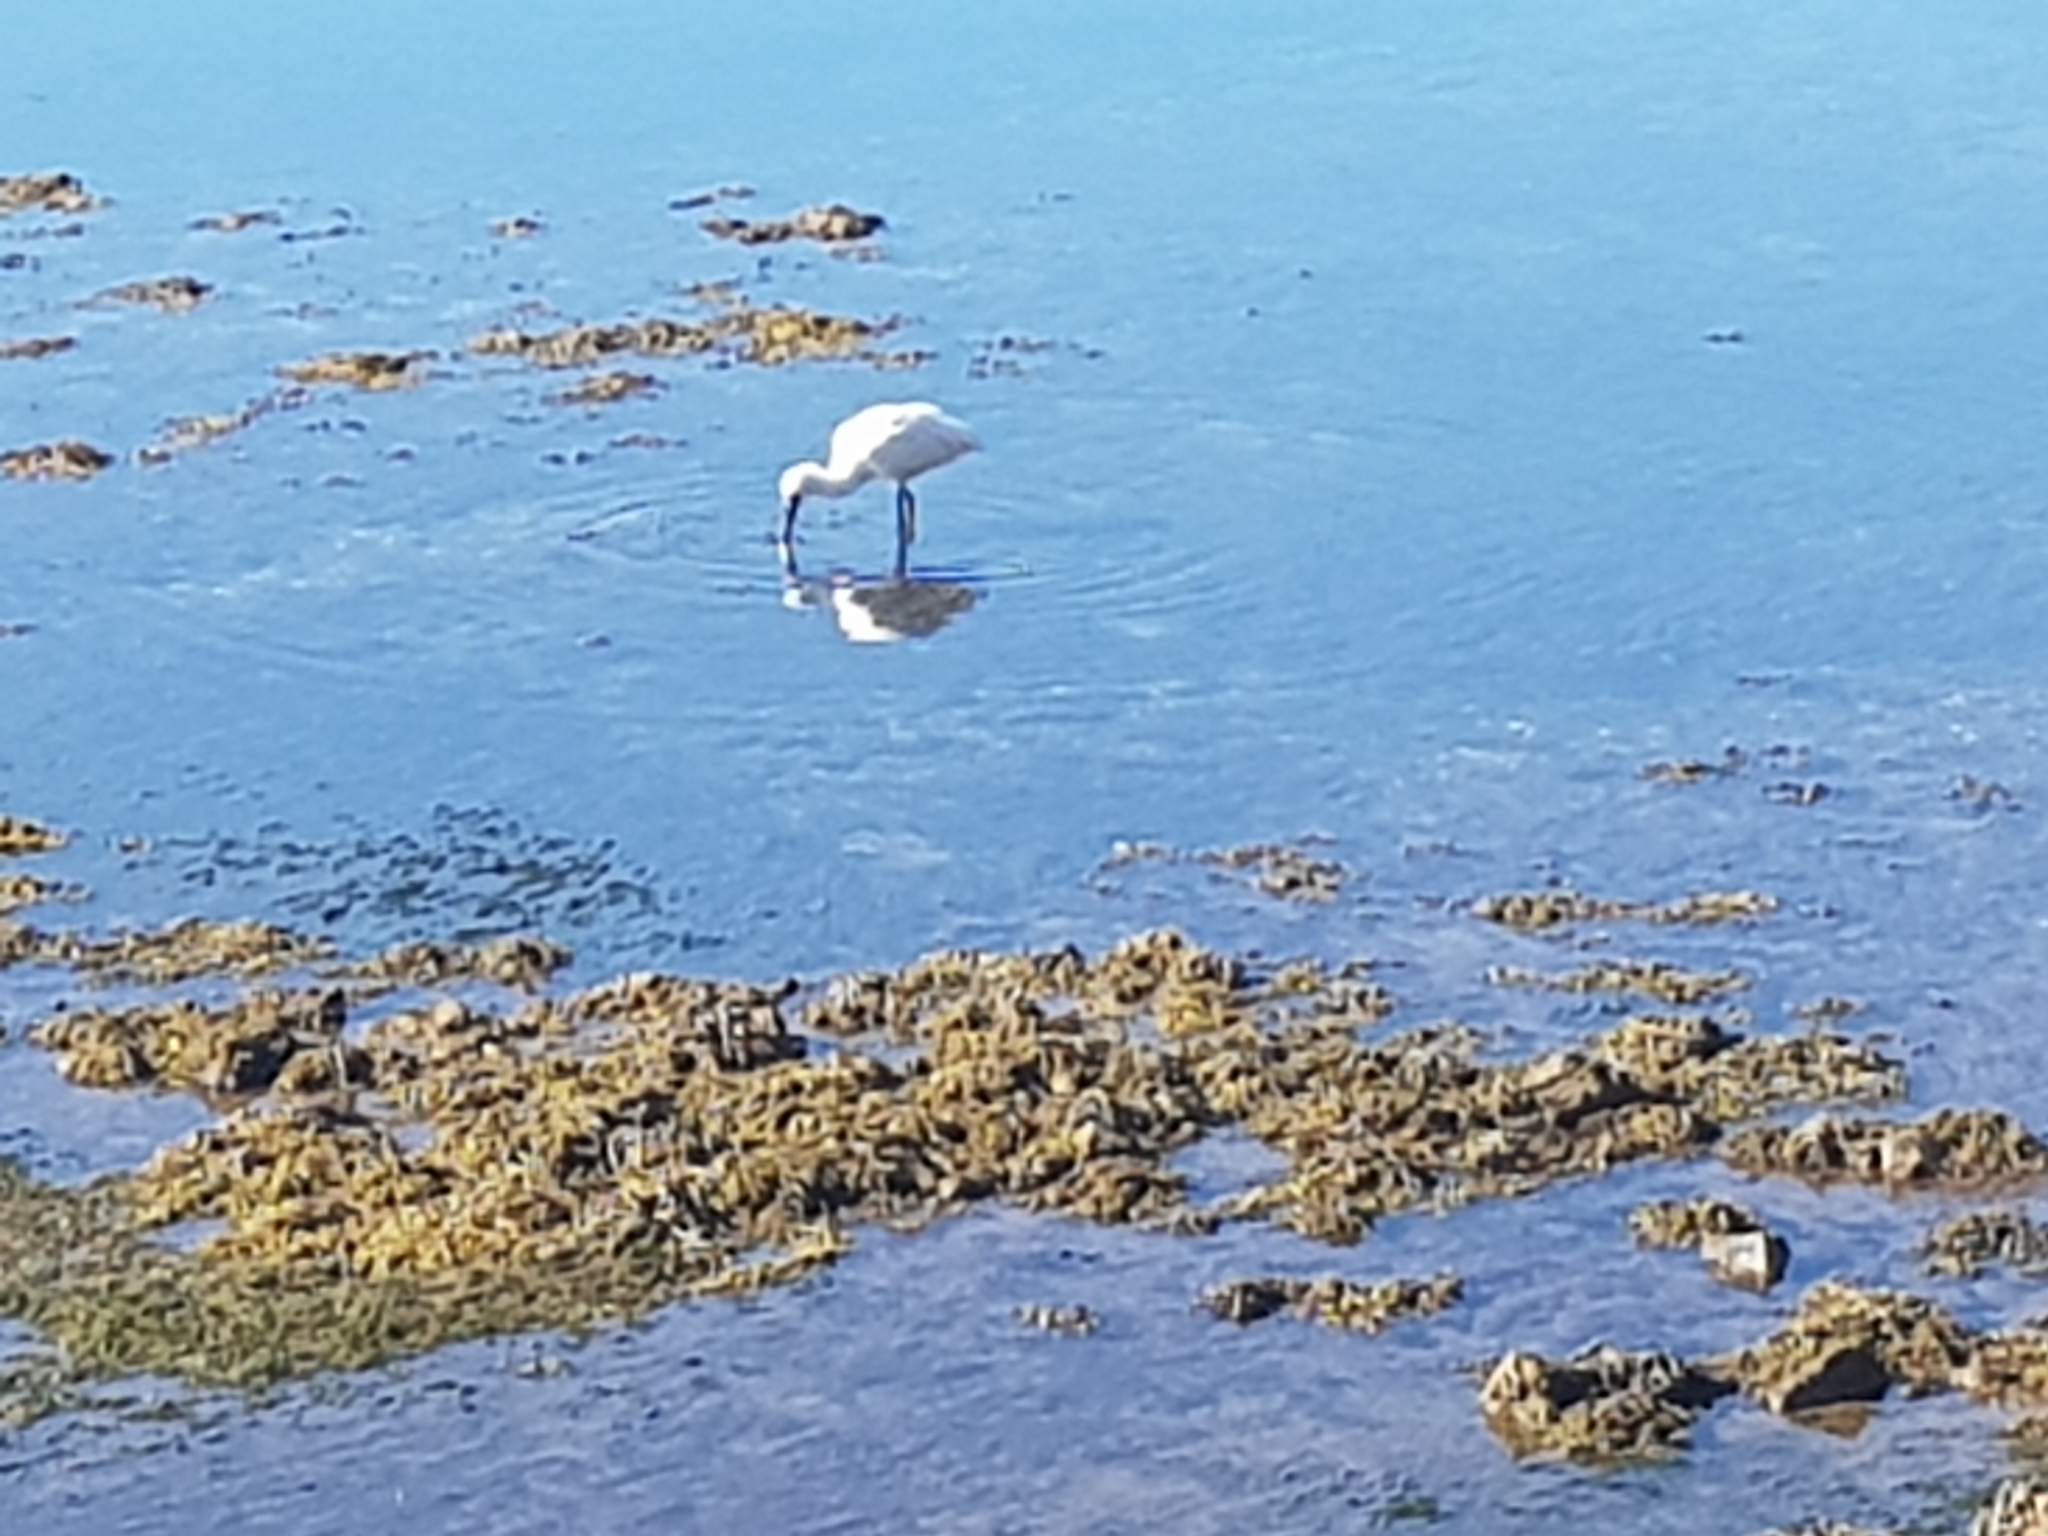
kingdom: Animalia
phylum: Chordata
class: Aves
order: Pelecaniformes
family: Threskiornithidae
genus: Platalea
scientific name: Platalea regia
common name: Royal spoonbill
